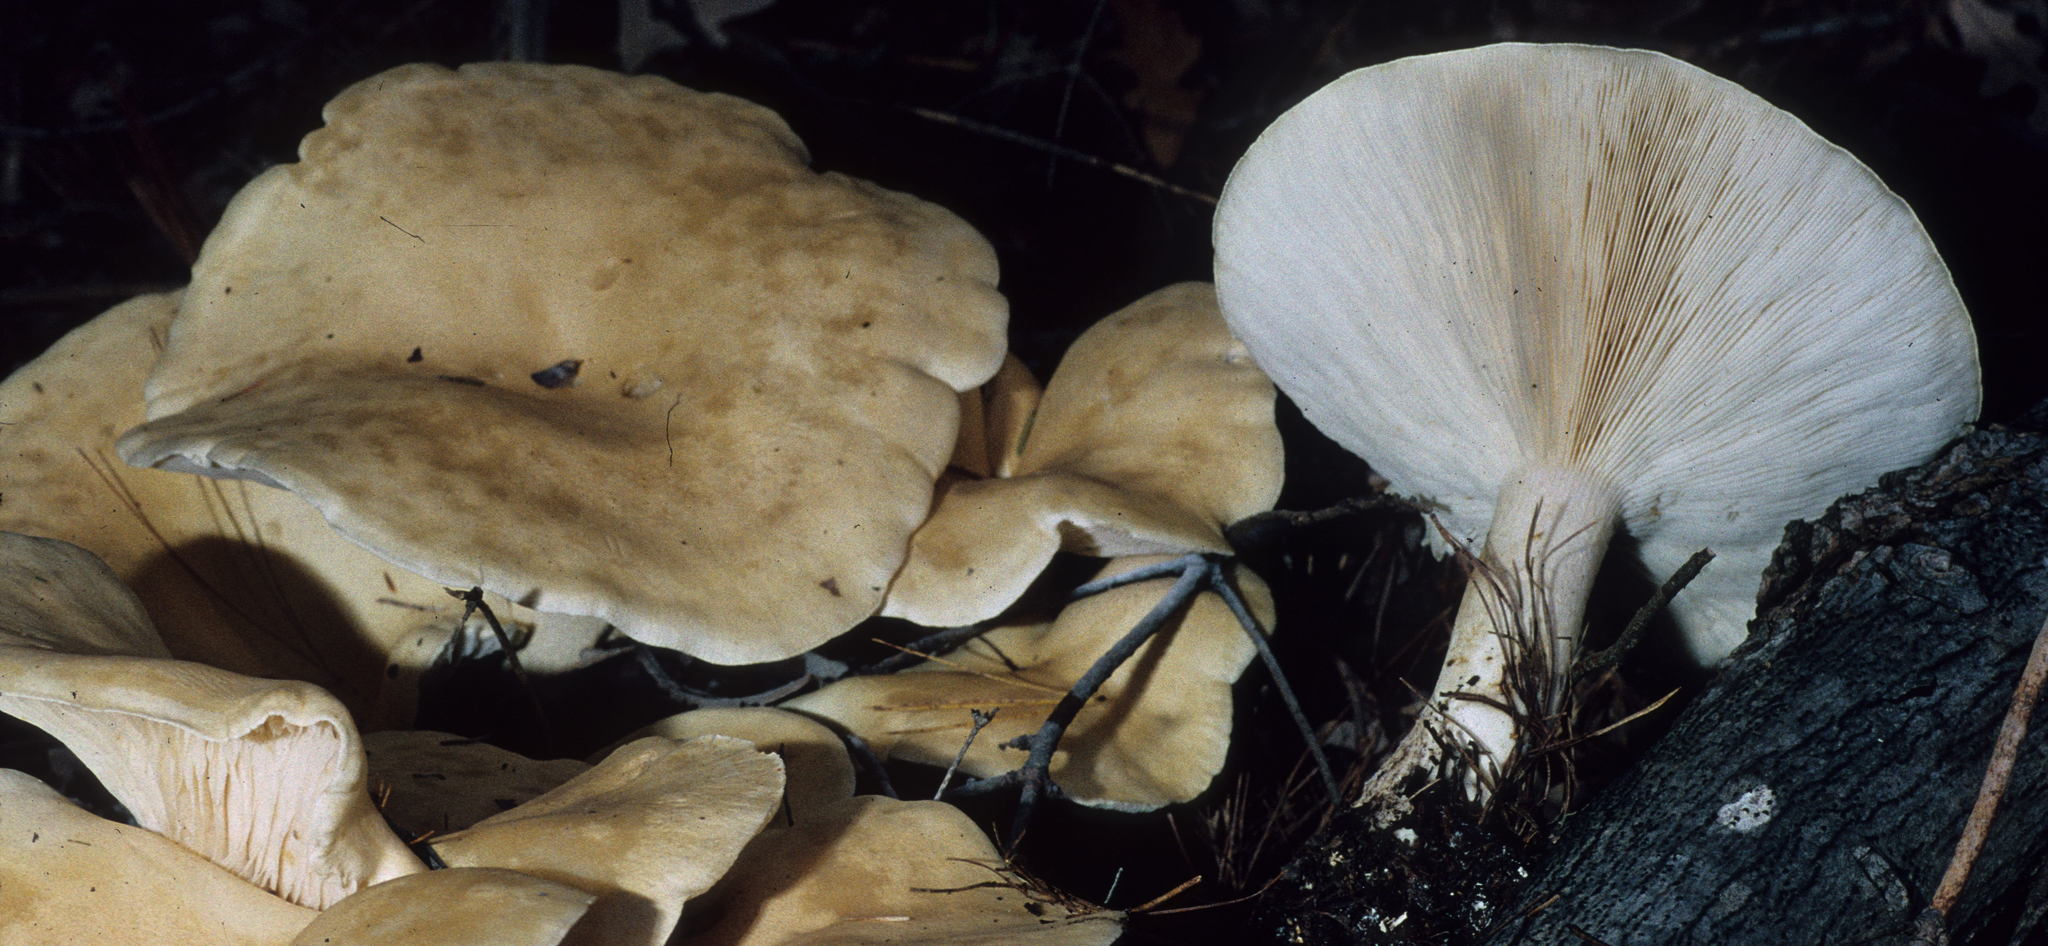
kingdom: Fungi
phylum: Basidiomycota
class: Agaricomycetes
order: Agaricales
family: Tricholomataceae
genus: Aspropaxillus
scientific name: Aspropaxillus giganteus
